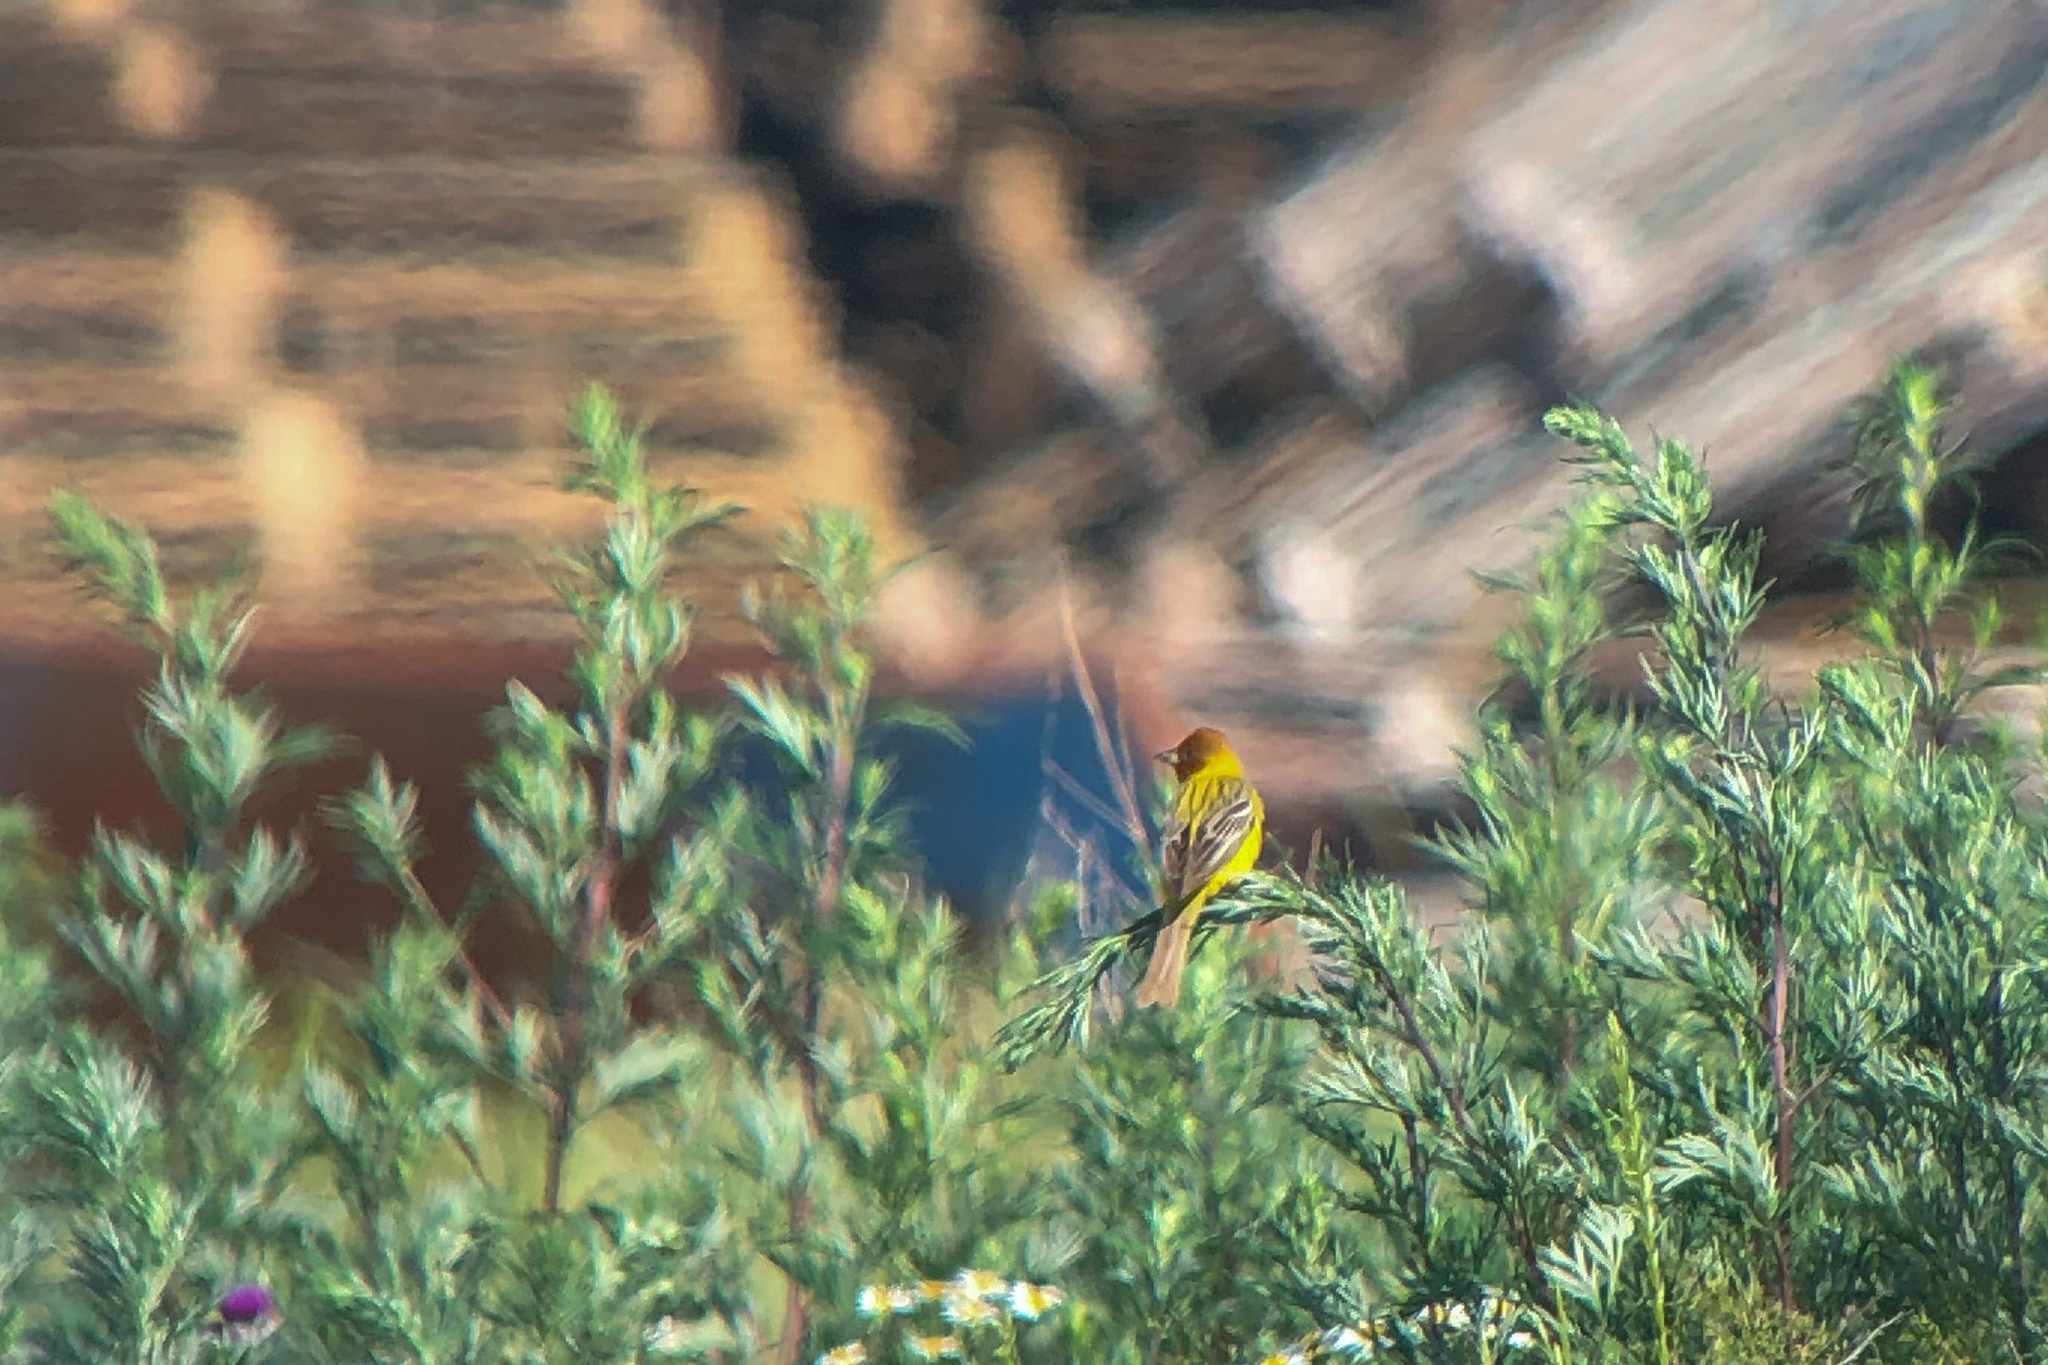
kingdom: Animalia
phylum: Chordata
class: Aves
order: Passeriformes
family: Emberizidae
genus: Emberiza
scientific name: Emberiza bruniceps
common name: Red-headed bunting
